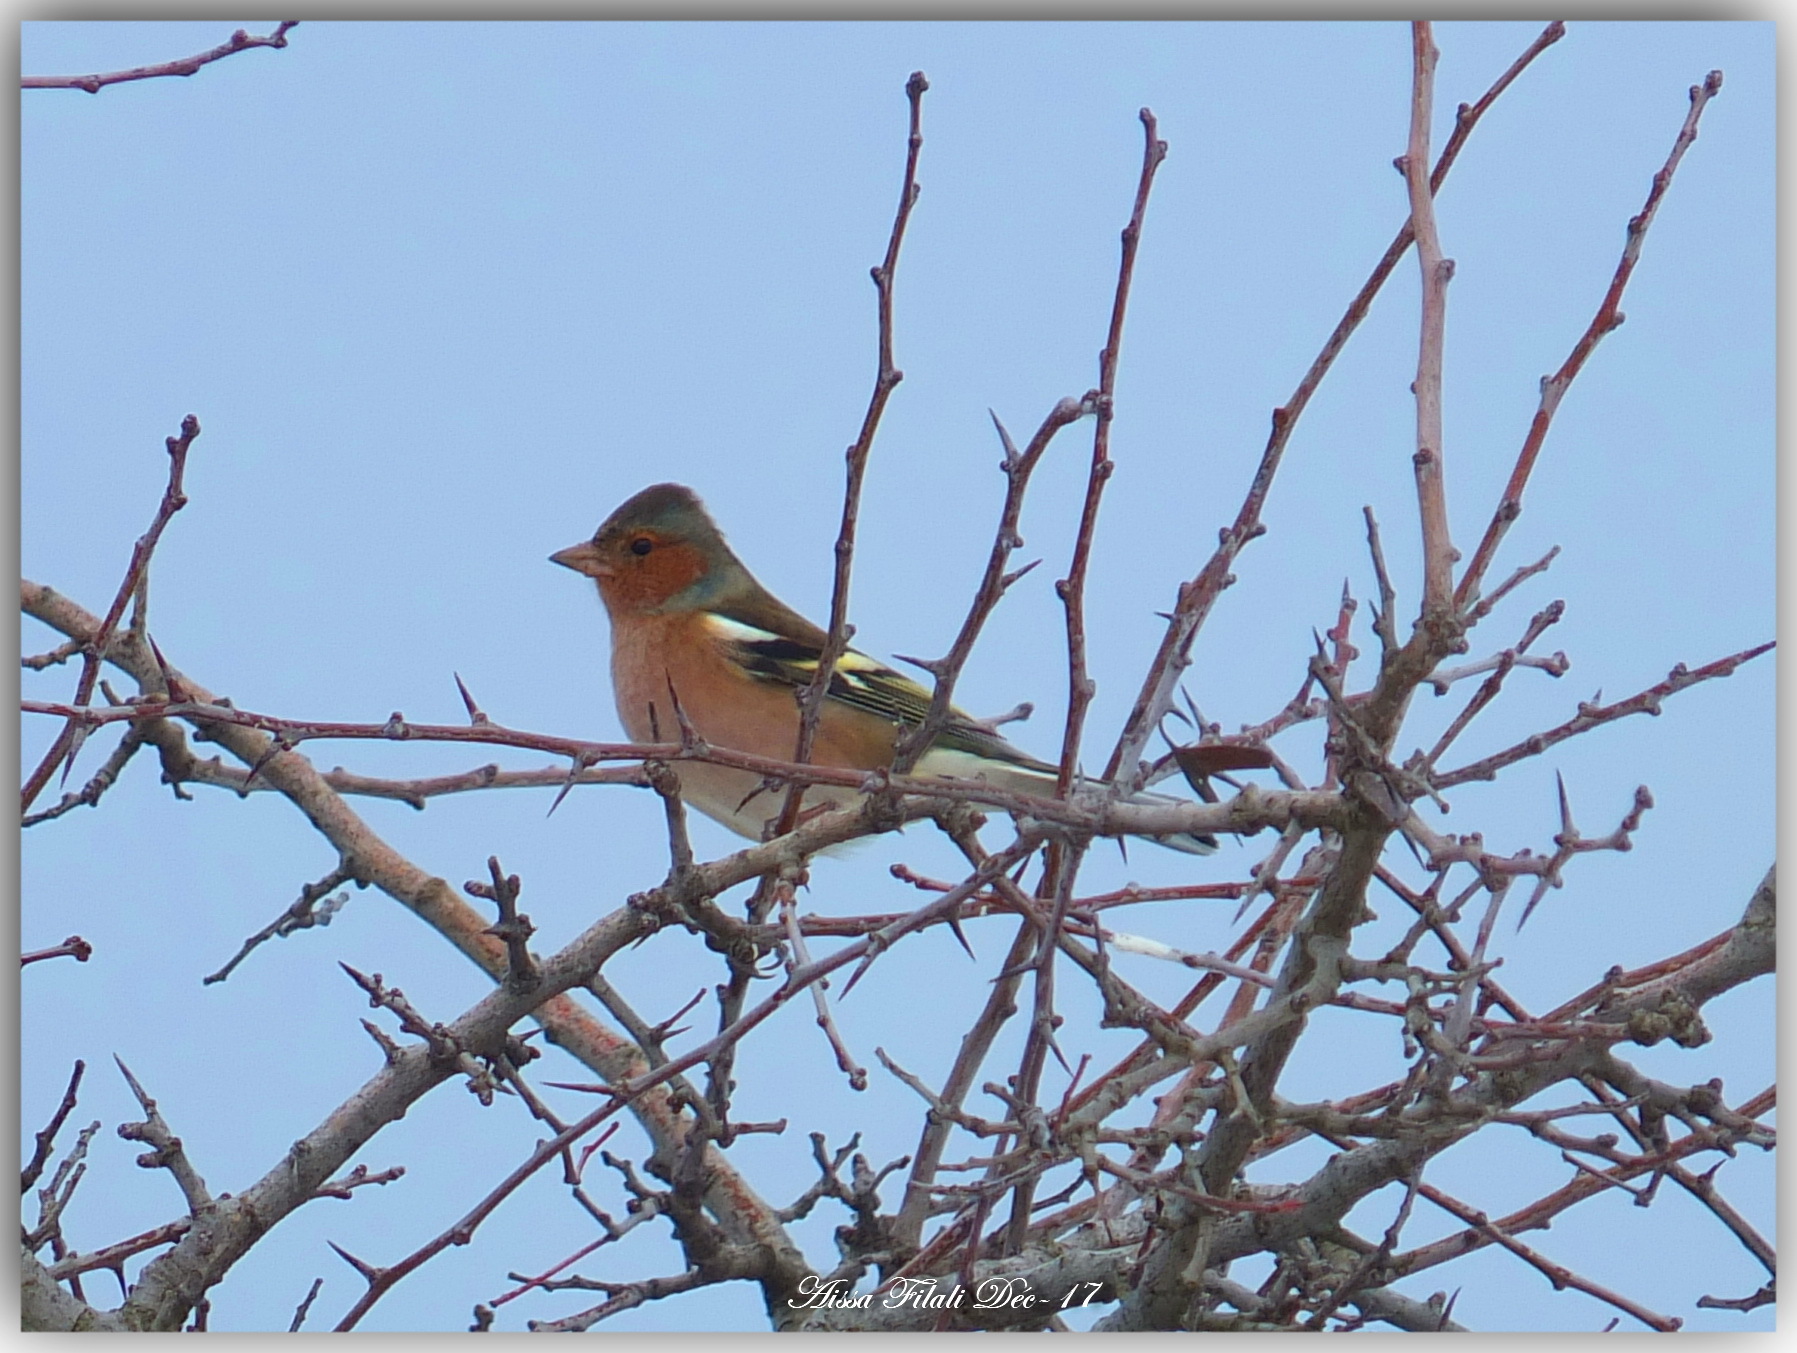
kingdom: Animalia
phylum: Chordata
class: Aves
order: Passeriformes
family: Fringillidae
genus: Fringilla
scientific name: Fringilla coelebs
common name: Common chaffinch
